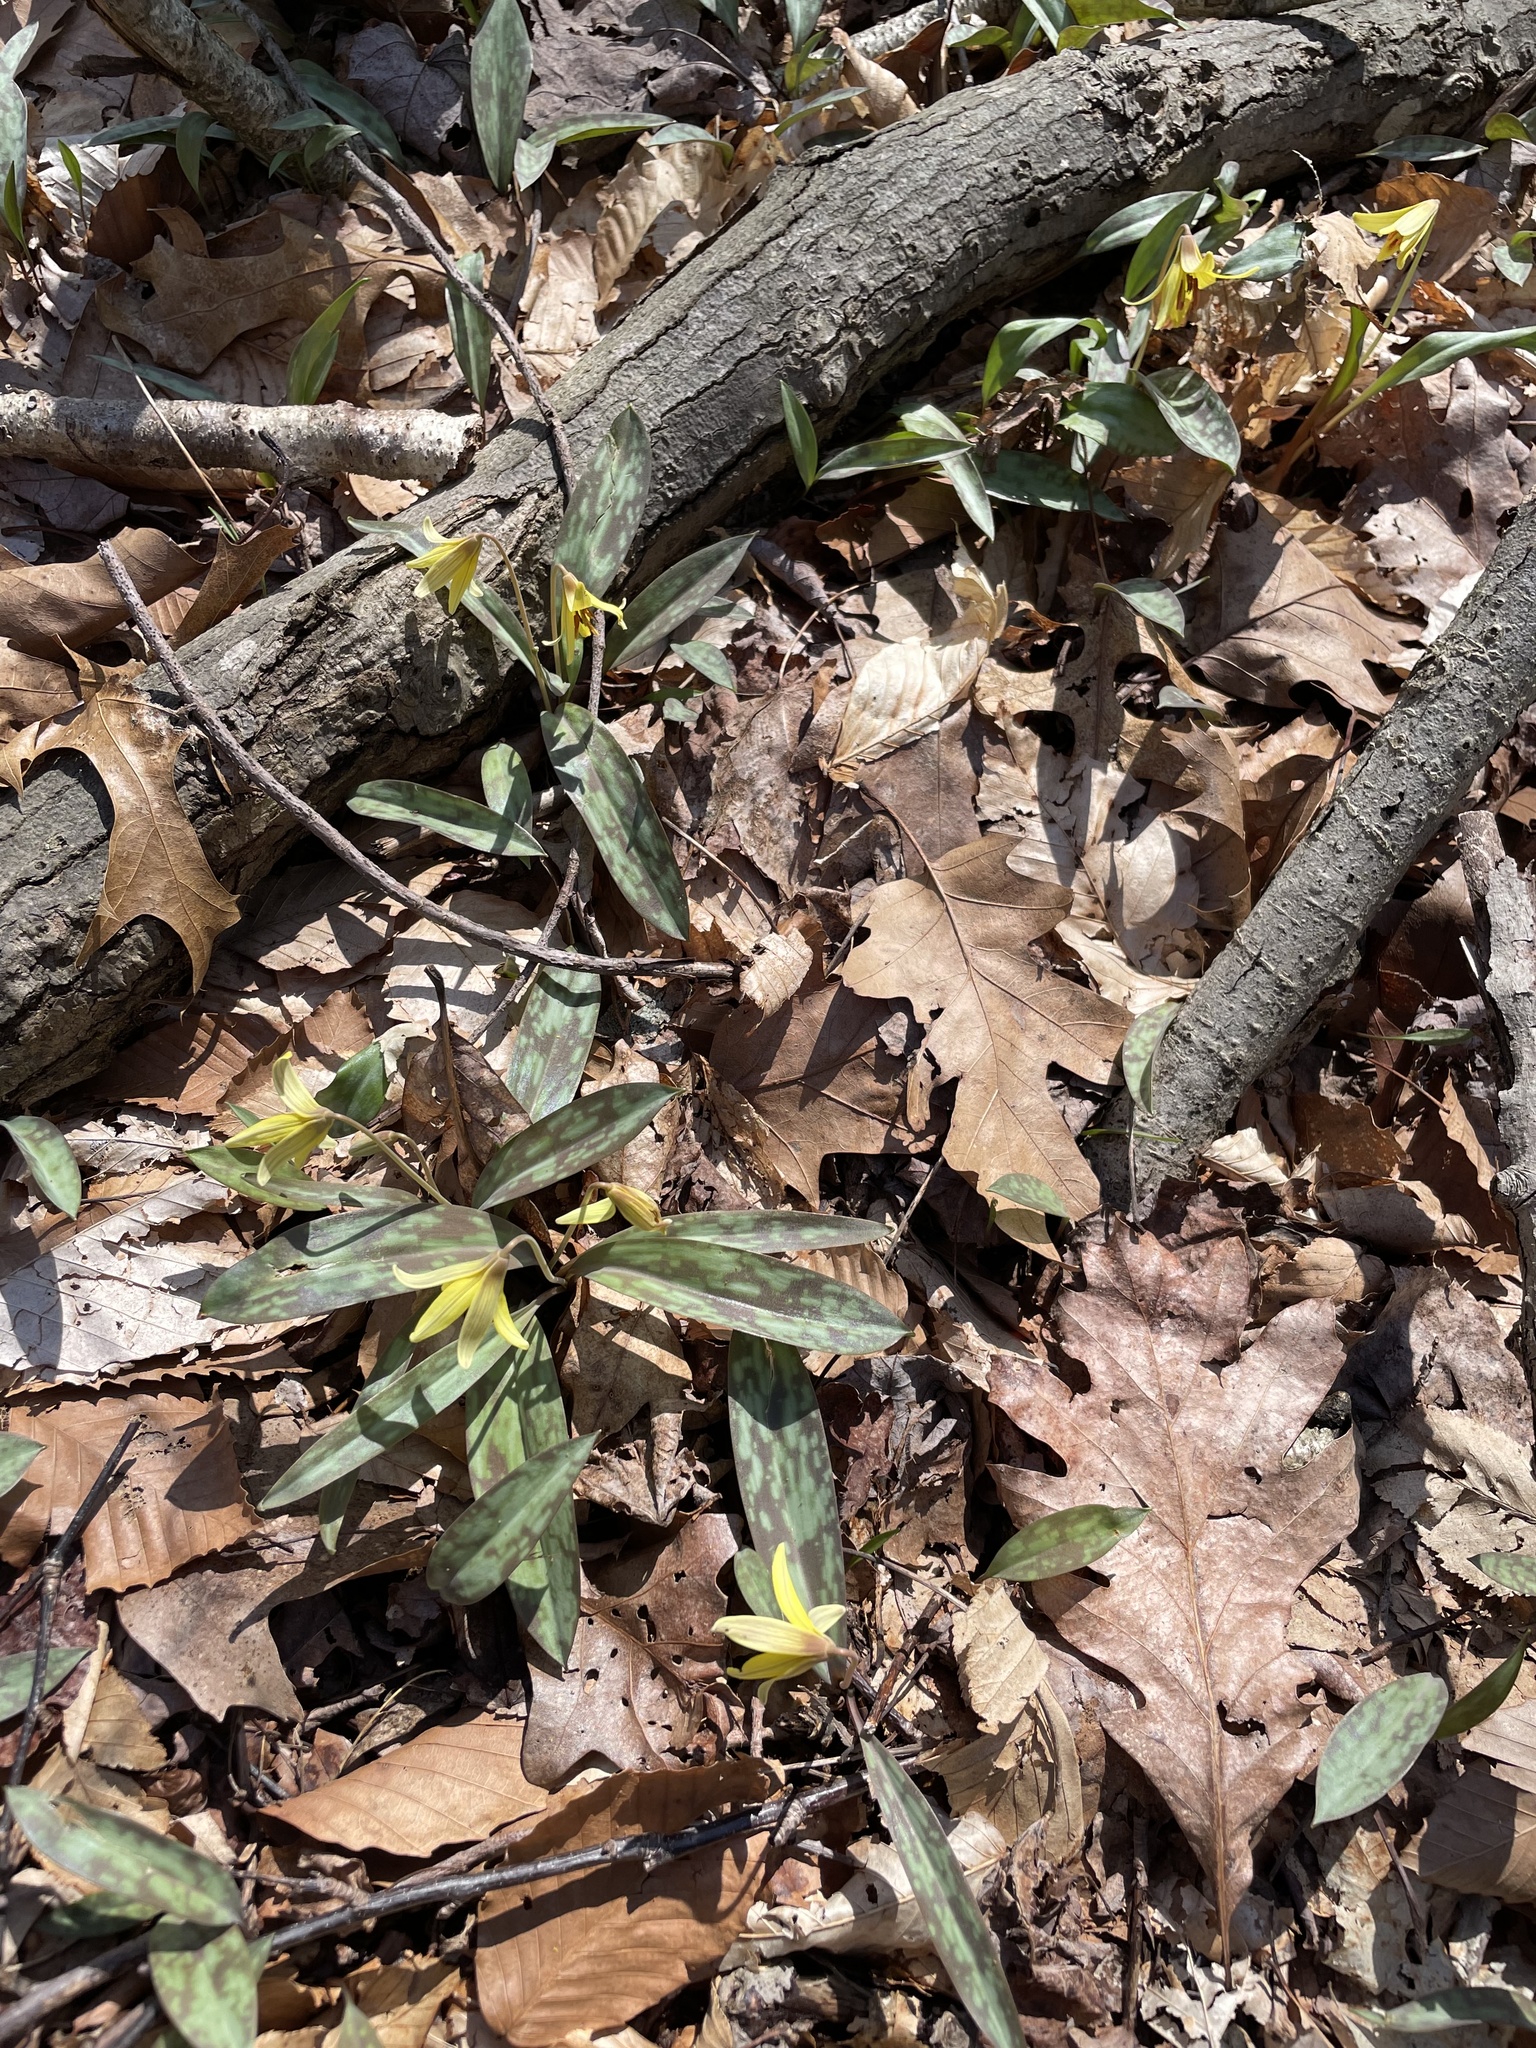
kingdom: Plantae
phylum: Tracheophyta
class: Liliopsida
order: Liliales
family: Liliaceae
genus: Erythronium
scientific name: Erythronium americanum
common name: Yellow adder's-tongue
